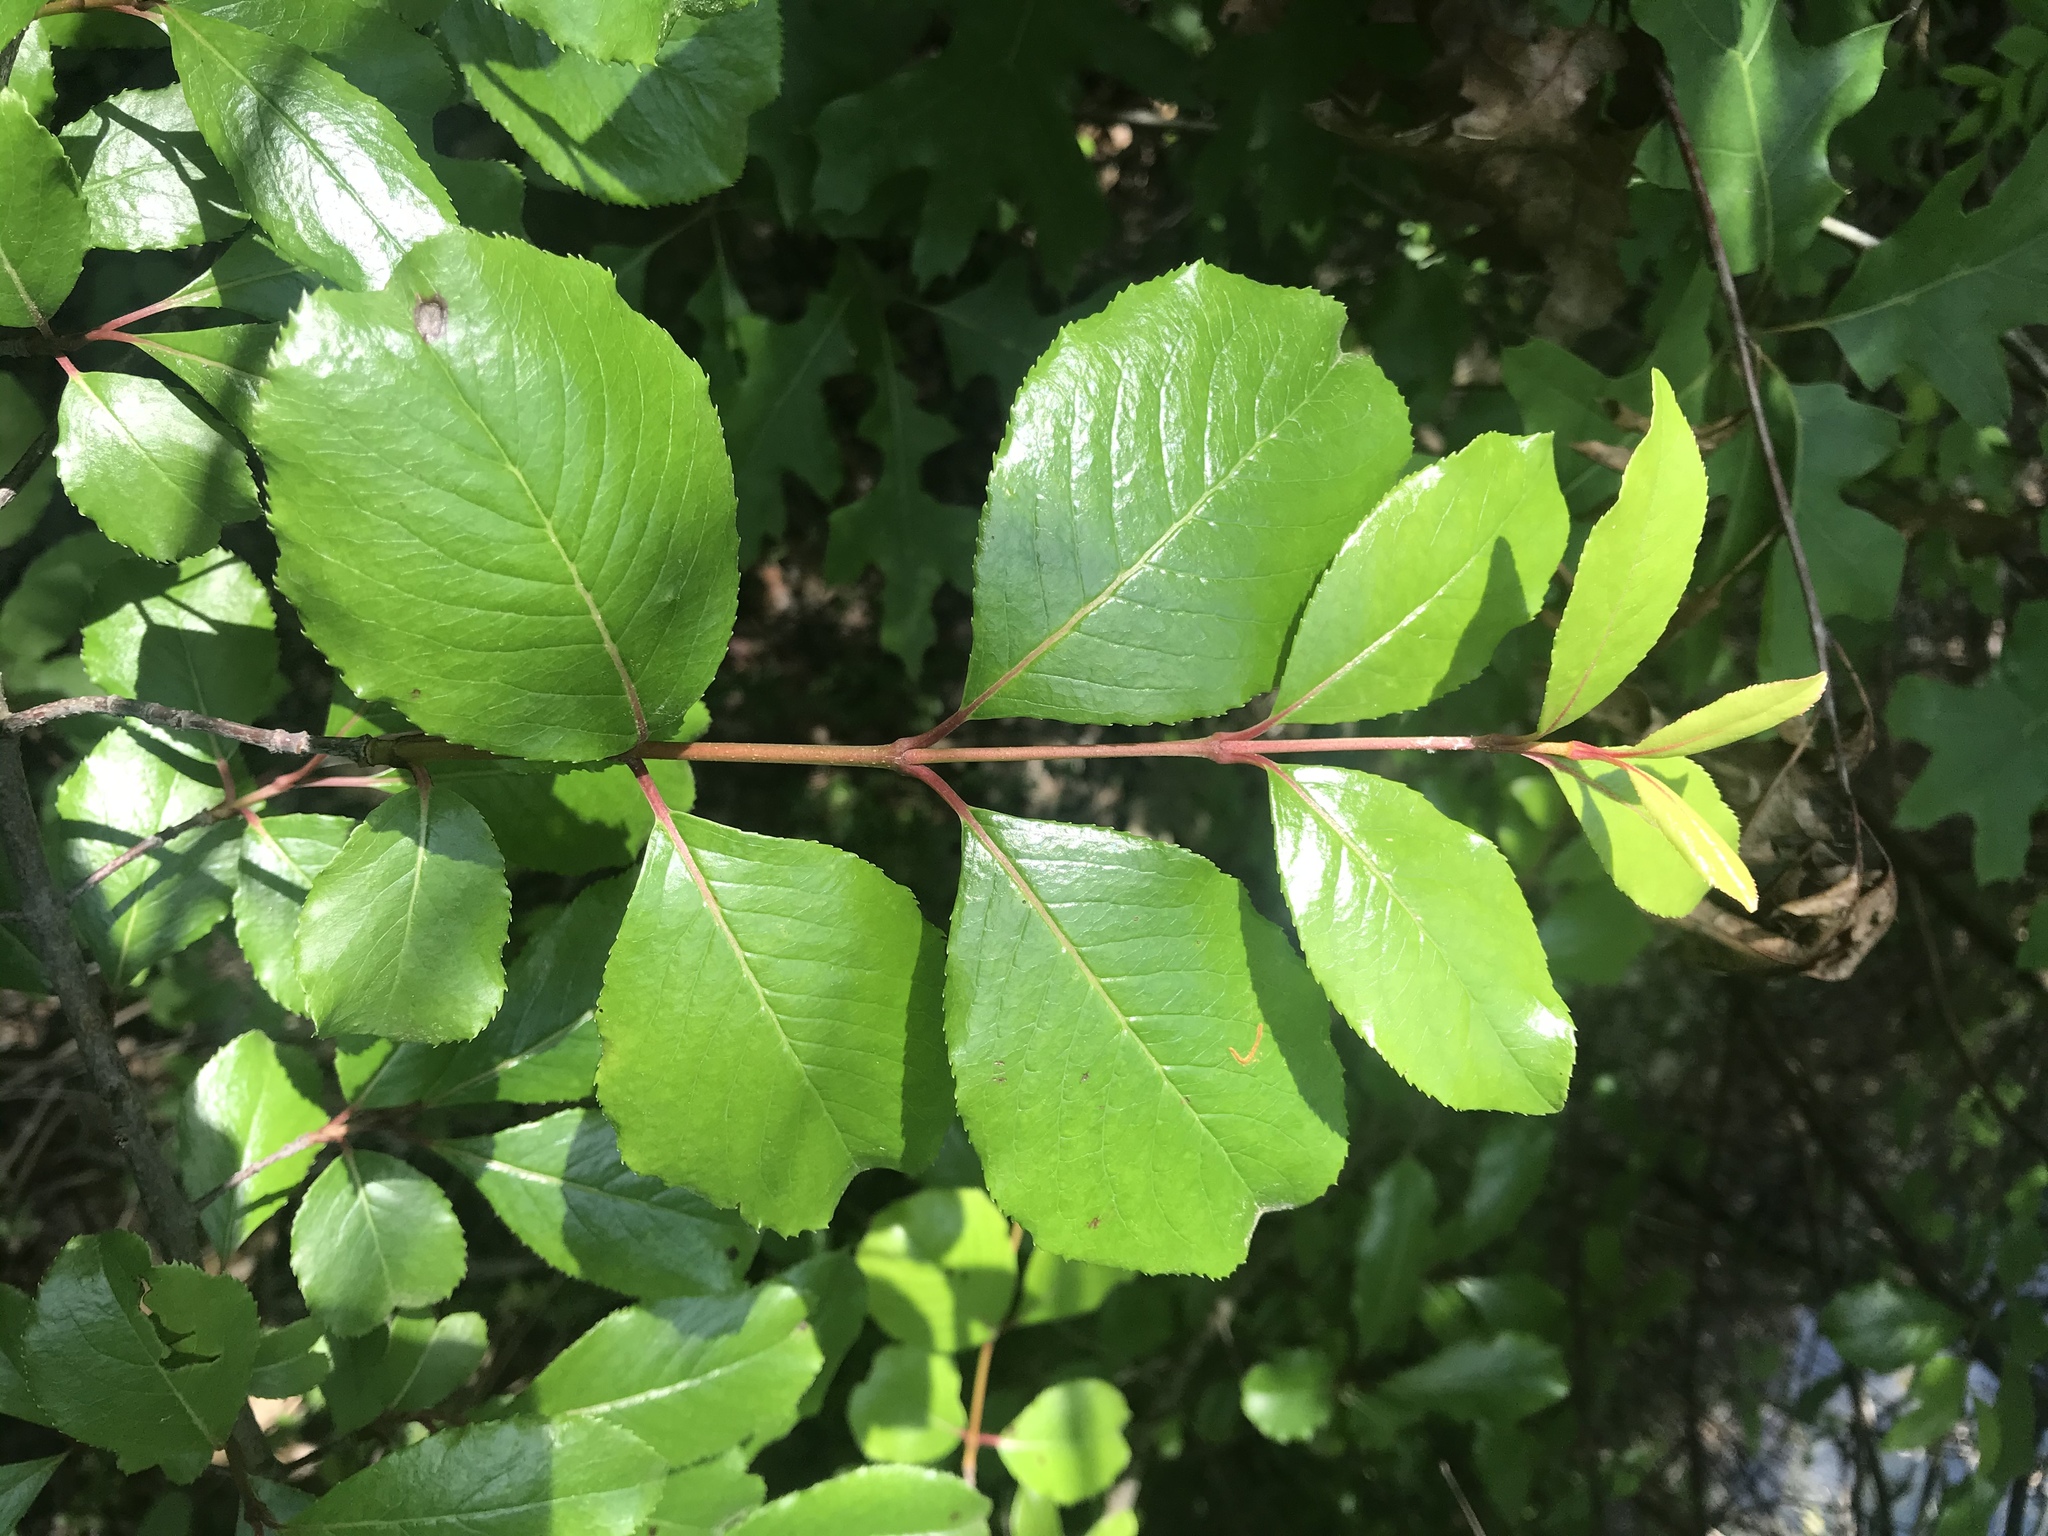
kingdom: Plantae
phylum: Tracheophyta
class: Magnoliopsida
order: Dipsacales
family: Viburnaceae
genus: Viburnum
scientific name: Viburnum rufidulum
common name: Blue haw
